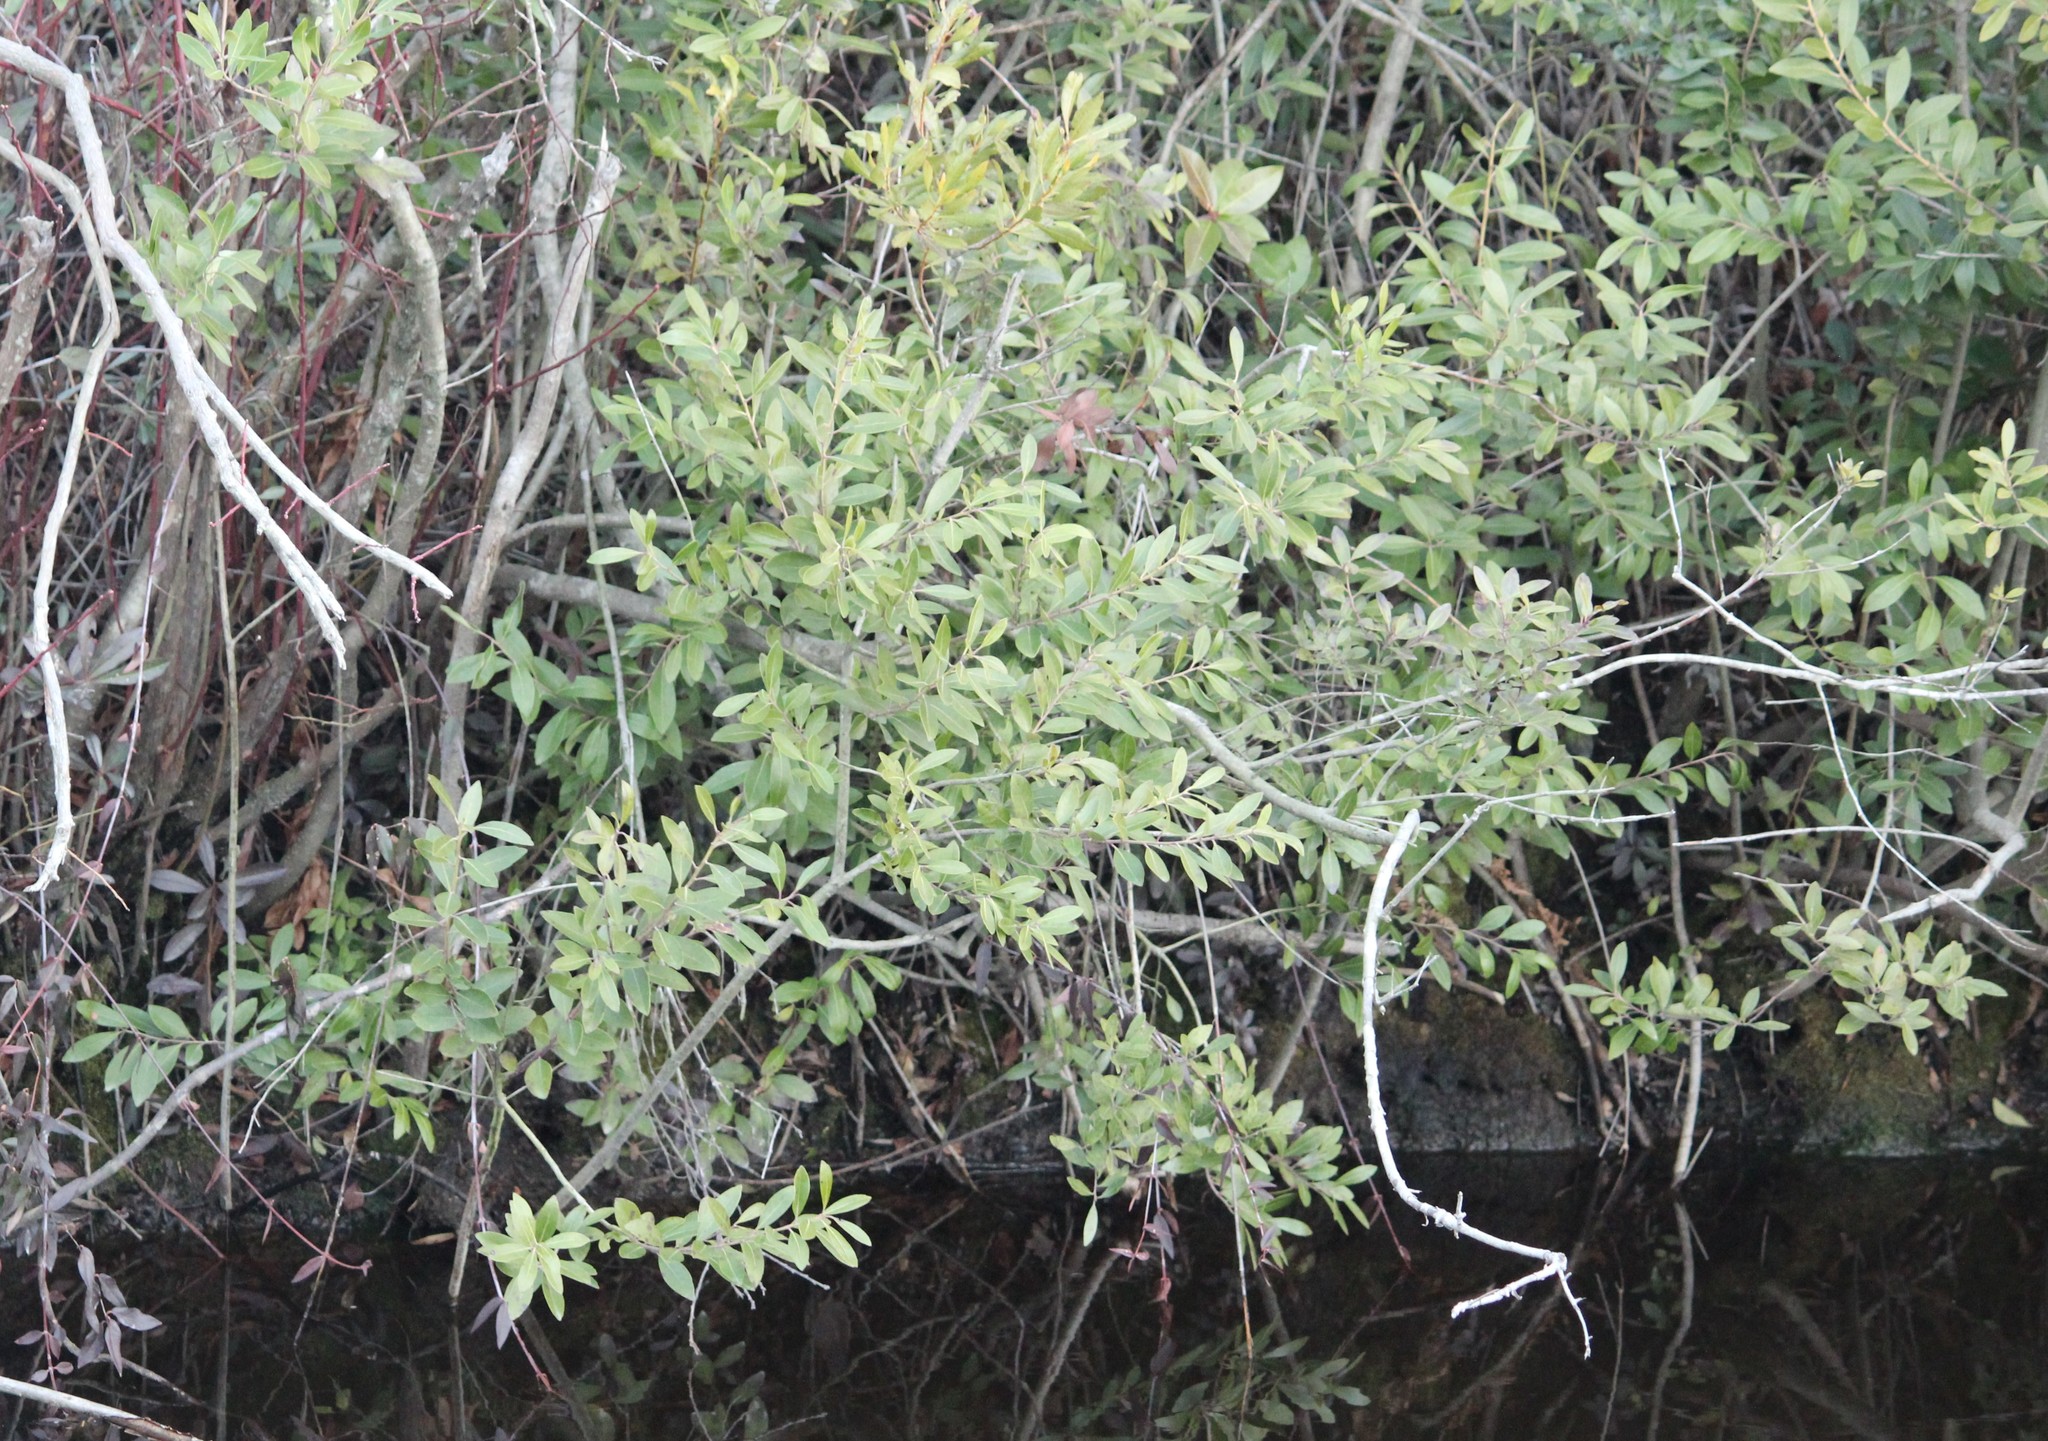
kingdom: Plantae
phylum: Tracheophyta
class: Magnoliopsida
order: Aquifoliales
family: Aquifoliaceae
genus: Ilex
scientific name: Ilex glabra
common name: Bitter gallberry
